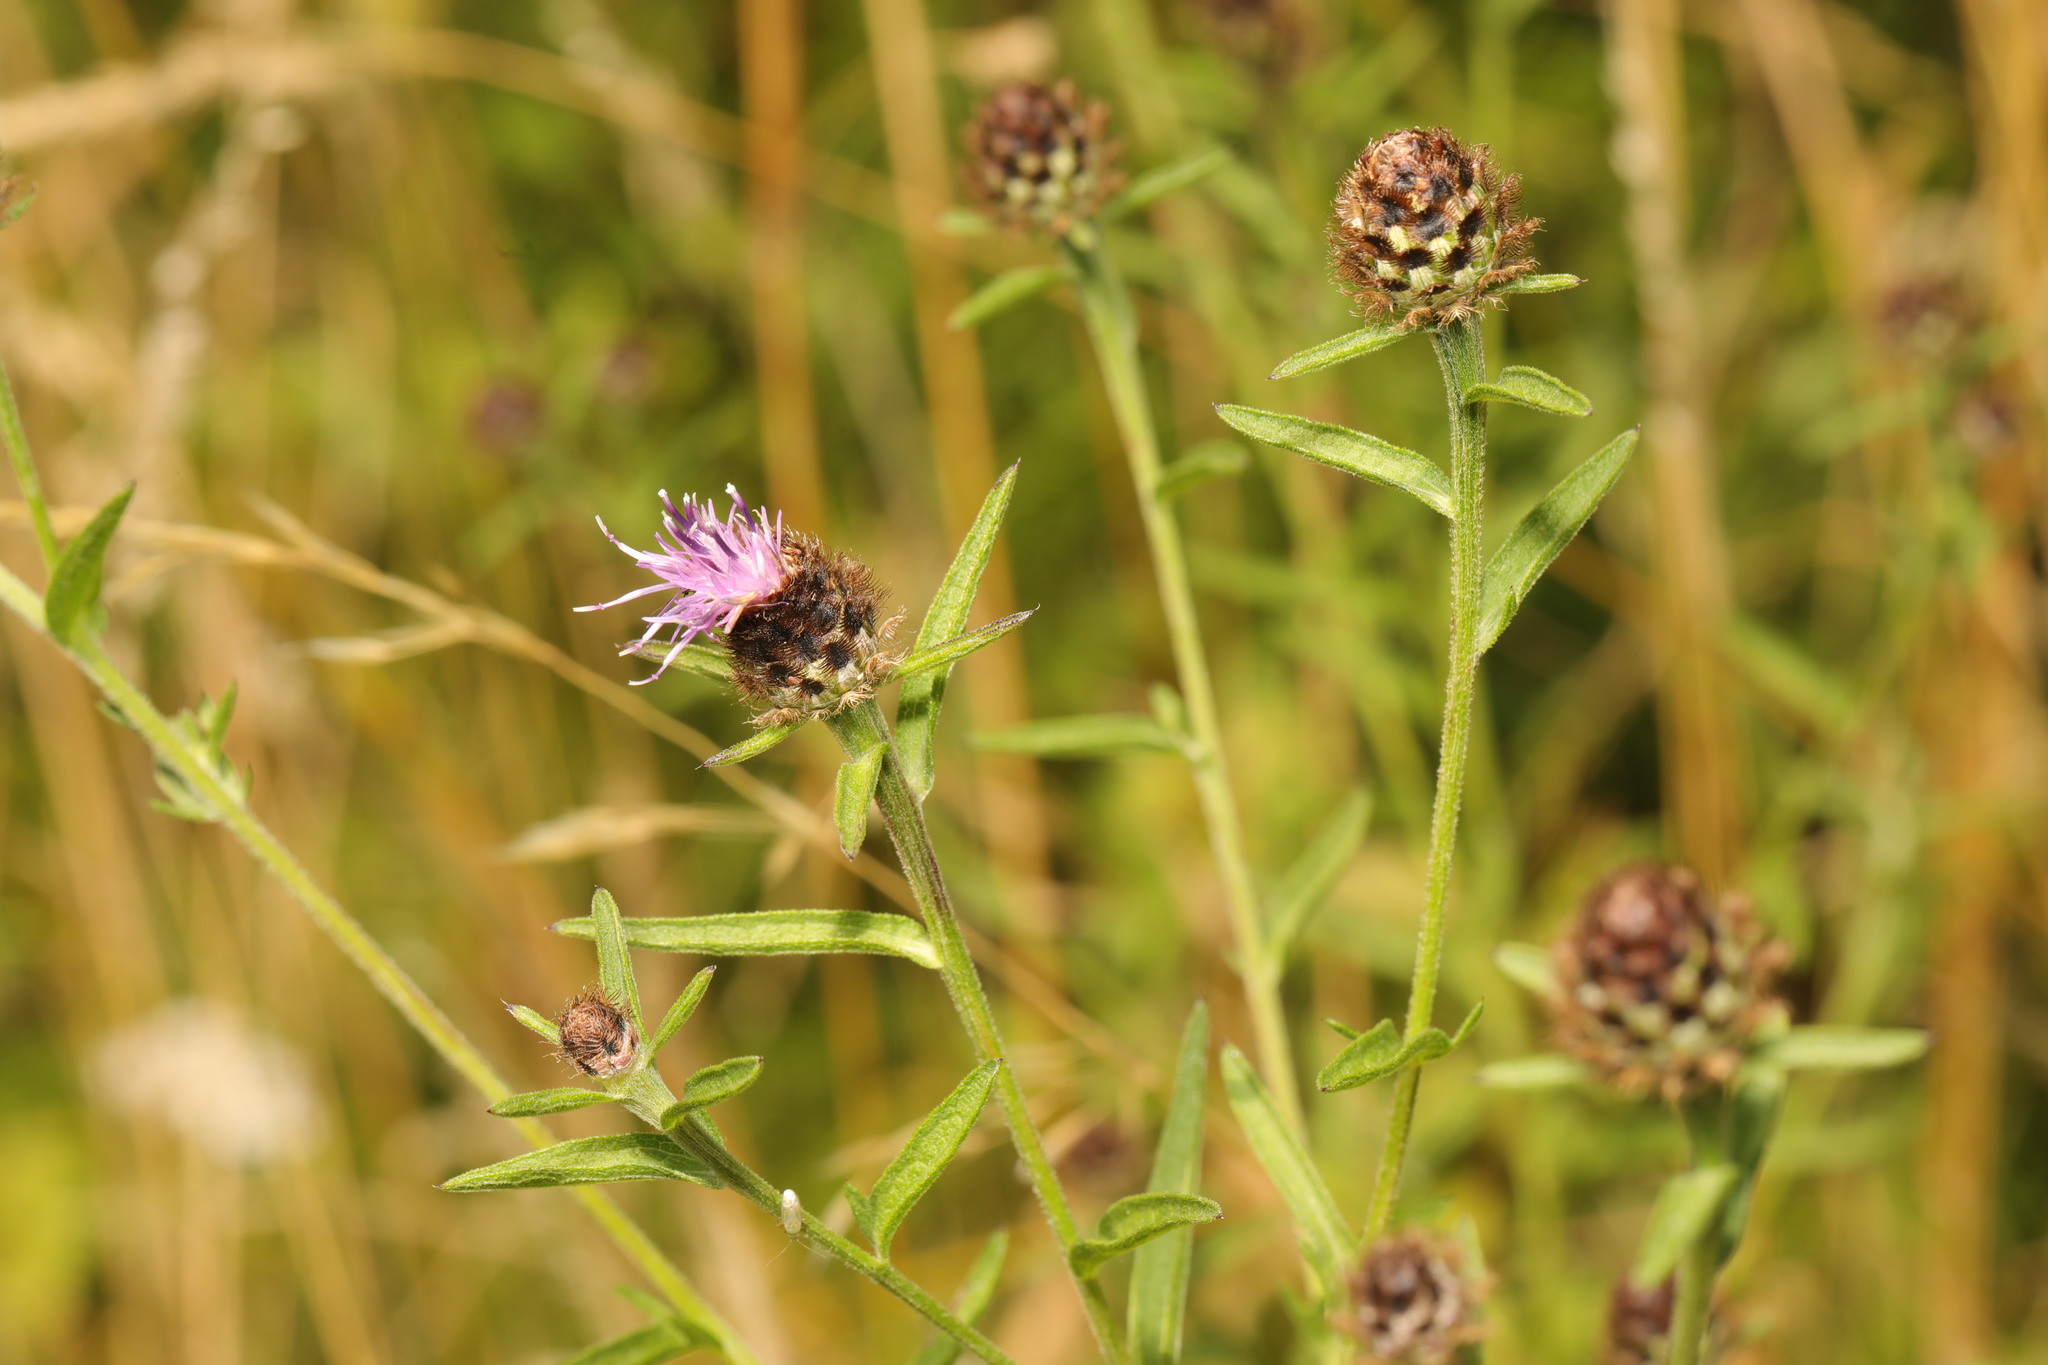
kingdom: Plantae
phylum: Tracheophyta
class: Magnoliopsida
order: Asterales
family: Asteraceae
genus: Centaurea
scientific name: Centaurea nigra
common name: Lesser knapweed
